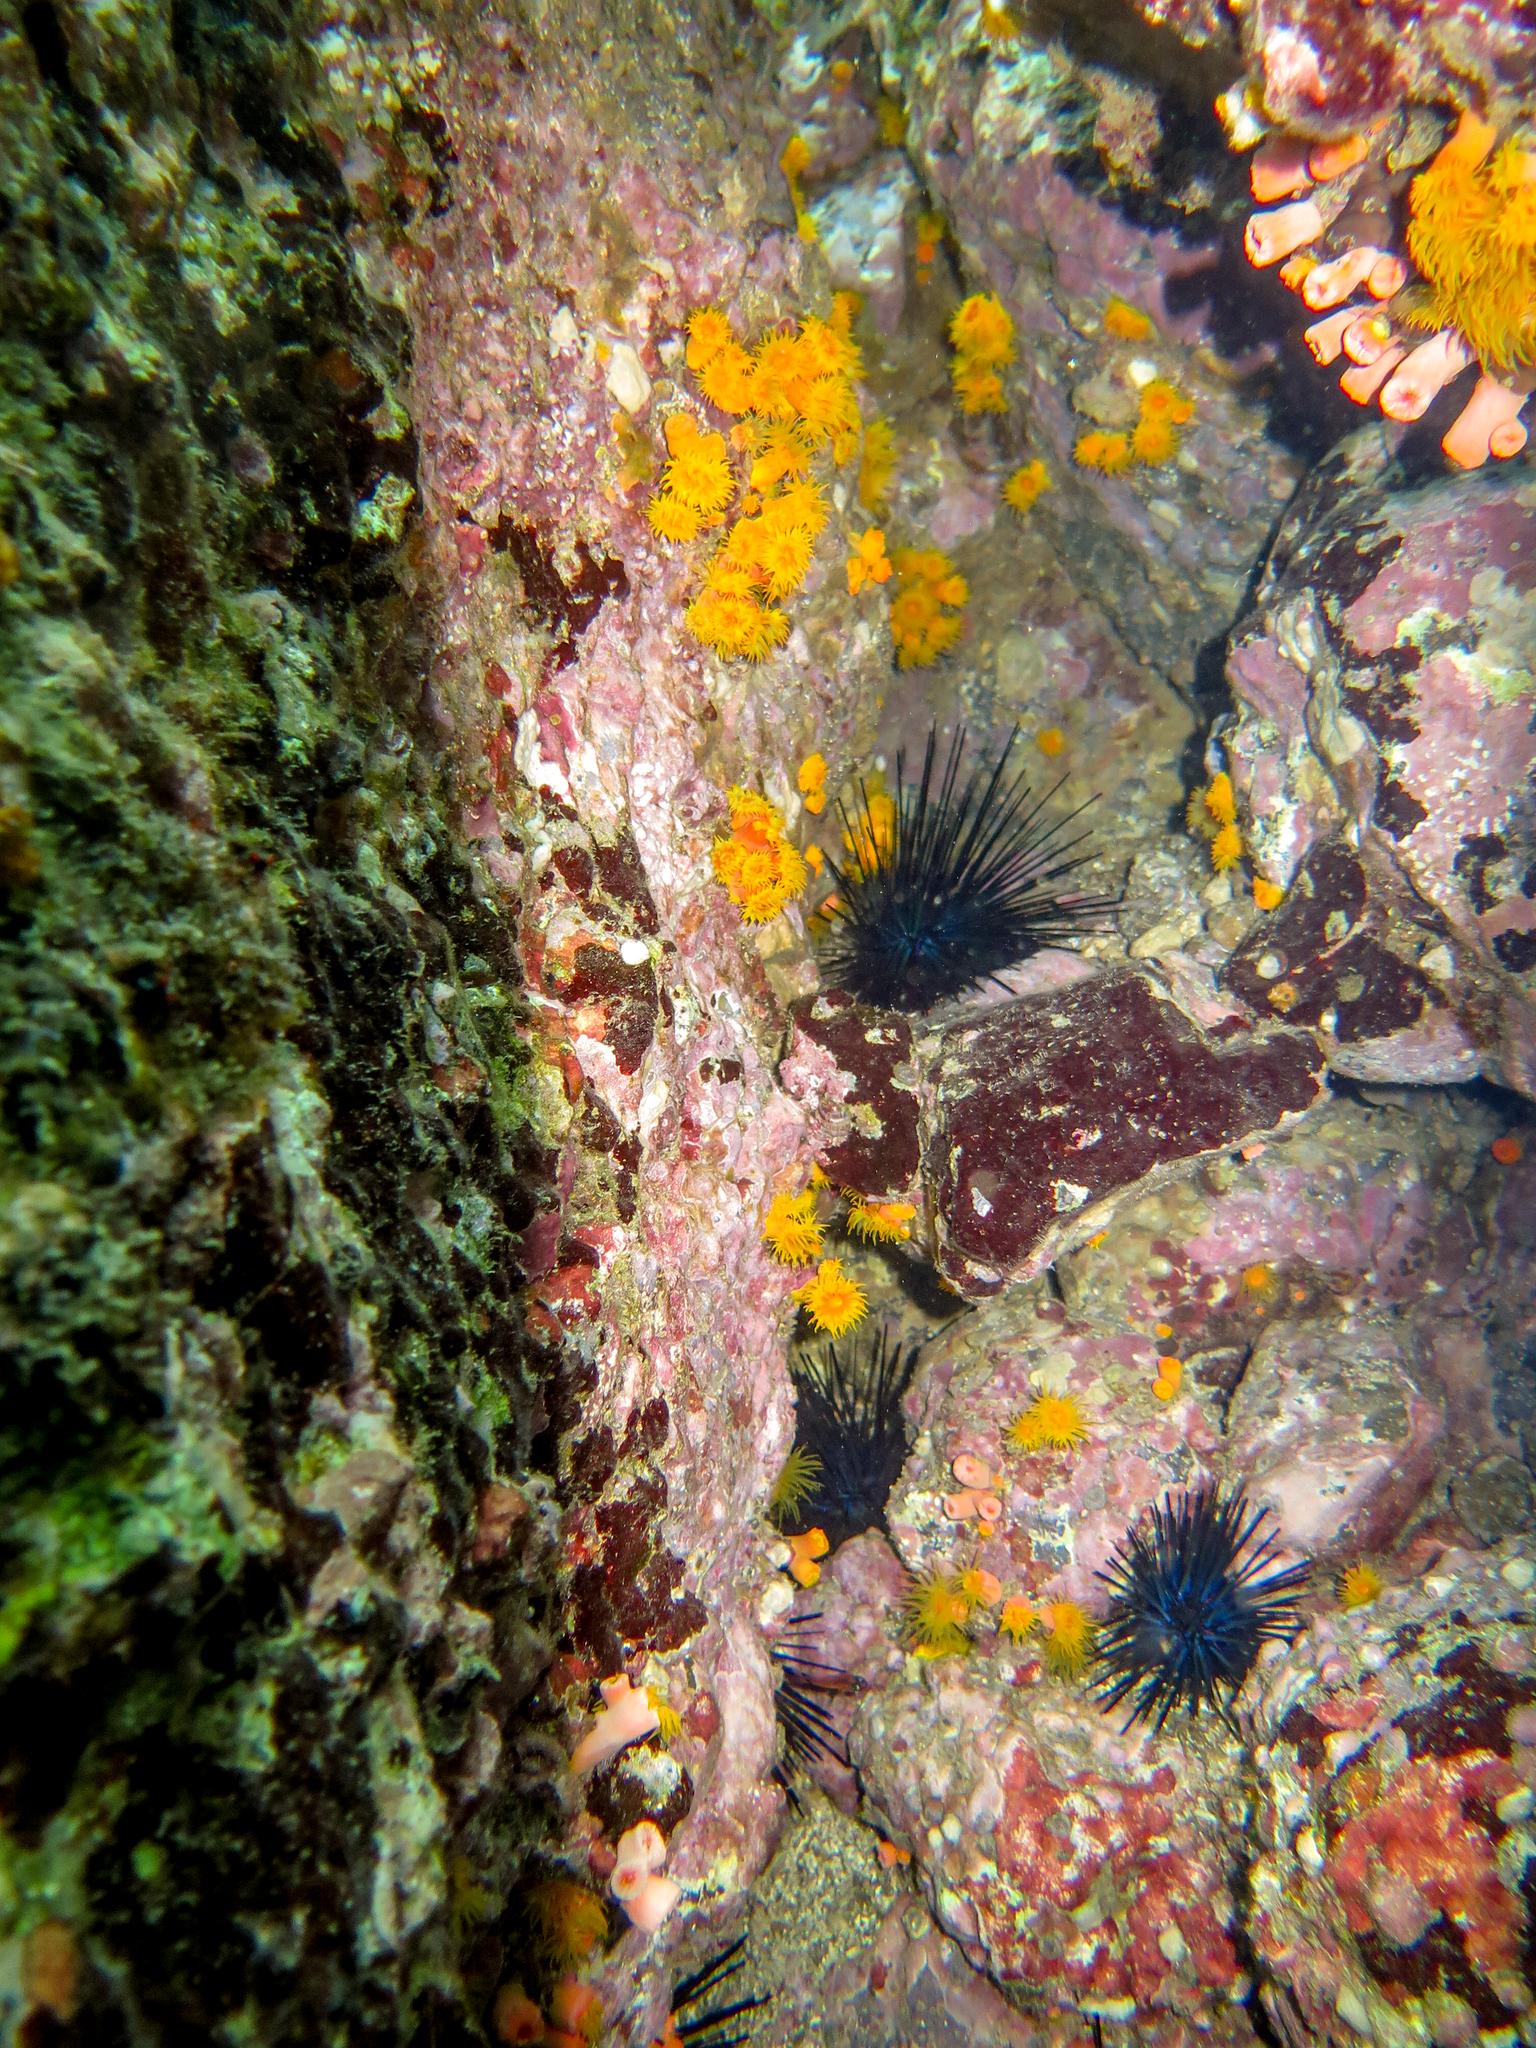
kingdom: Animalia
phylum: Echinodermata
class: Echinoidea
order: Diadematoida
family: Diadematidae
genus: Diadema
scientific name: Diadema mexicanum
